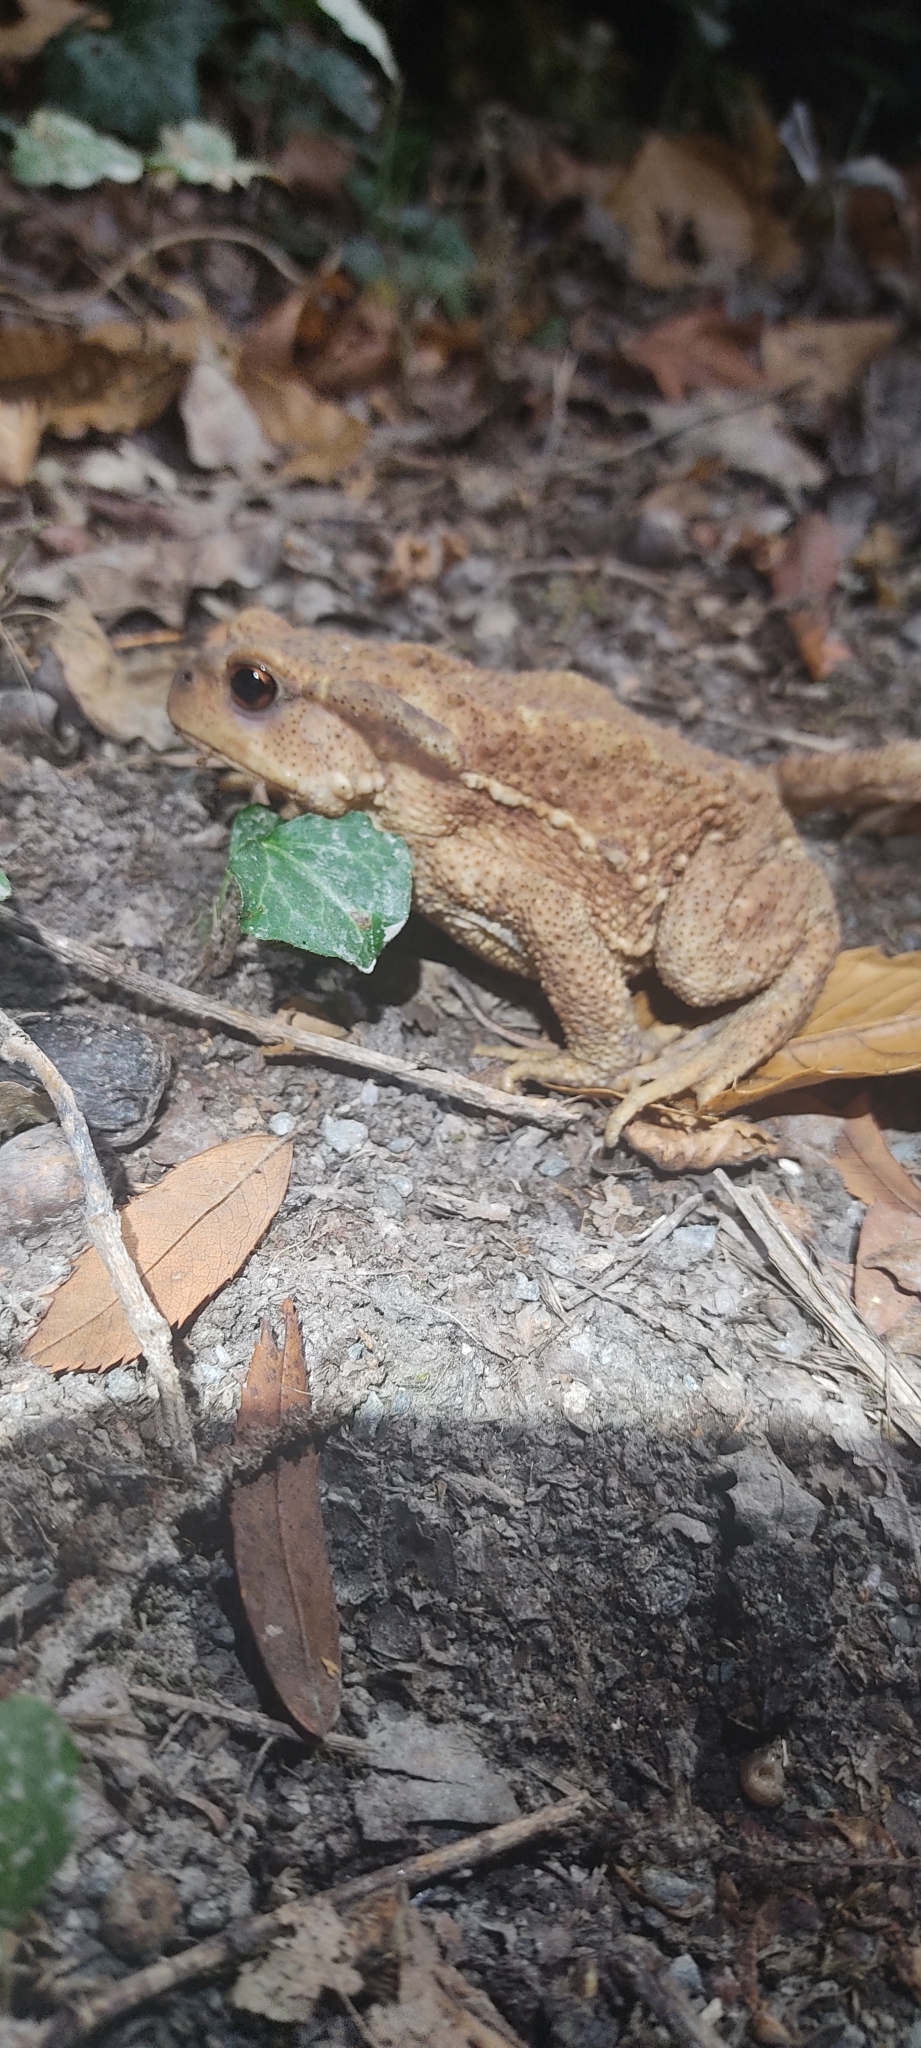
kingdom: Animalia
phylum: Chordata
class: Amphibia
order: Anura
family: Bufonidae
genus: Bufo
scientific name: Bufo spinosus
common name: Western common toad
